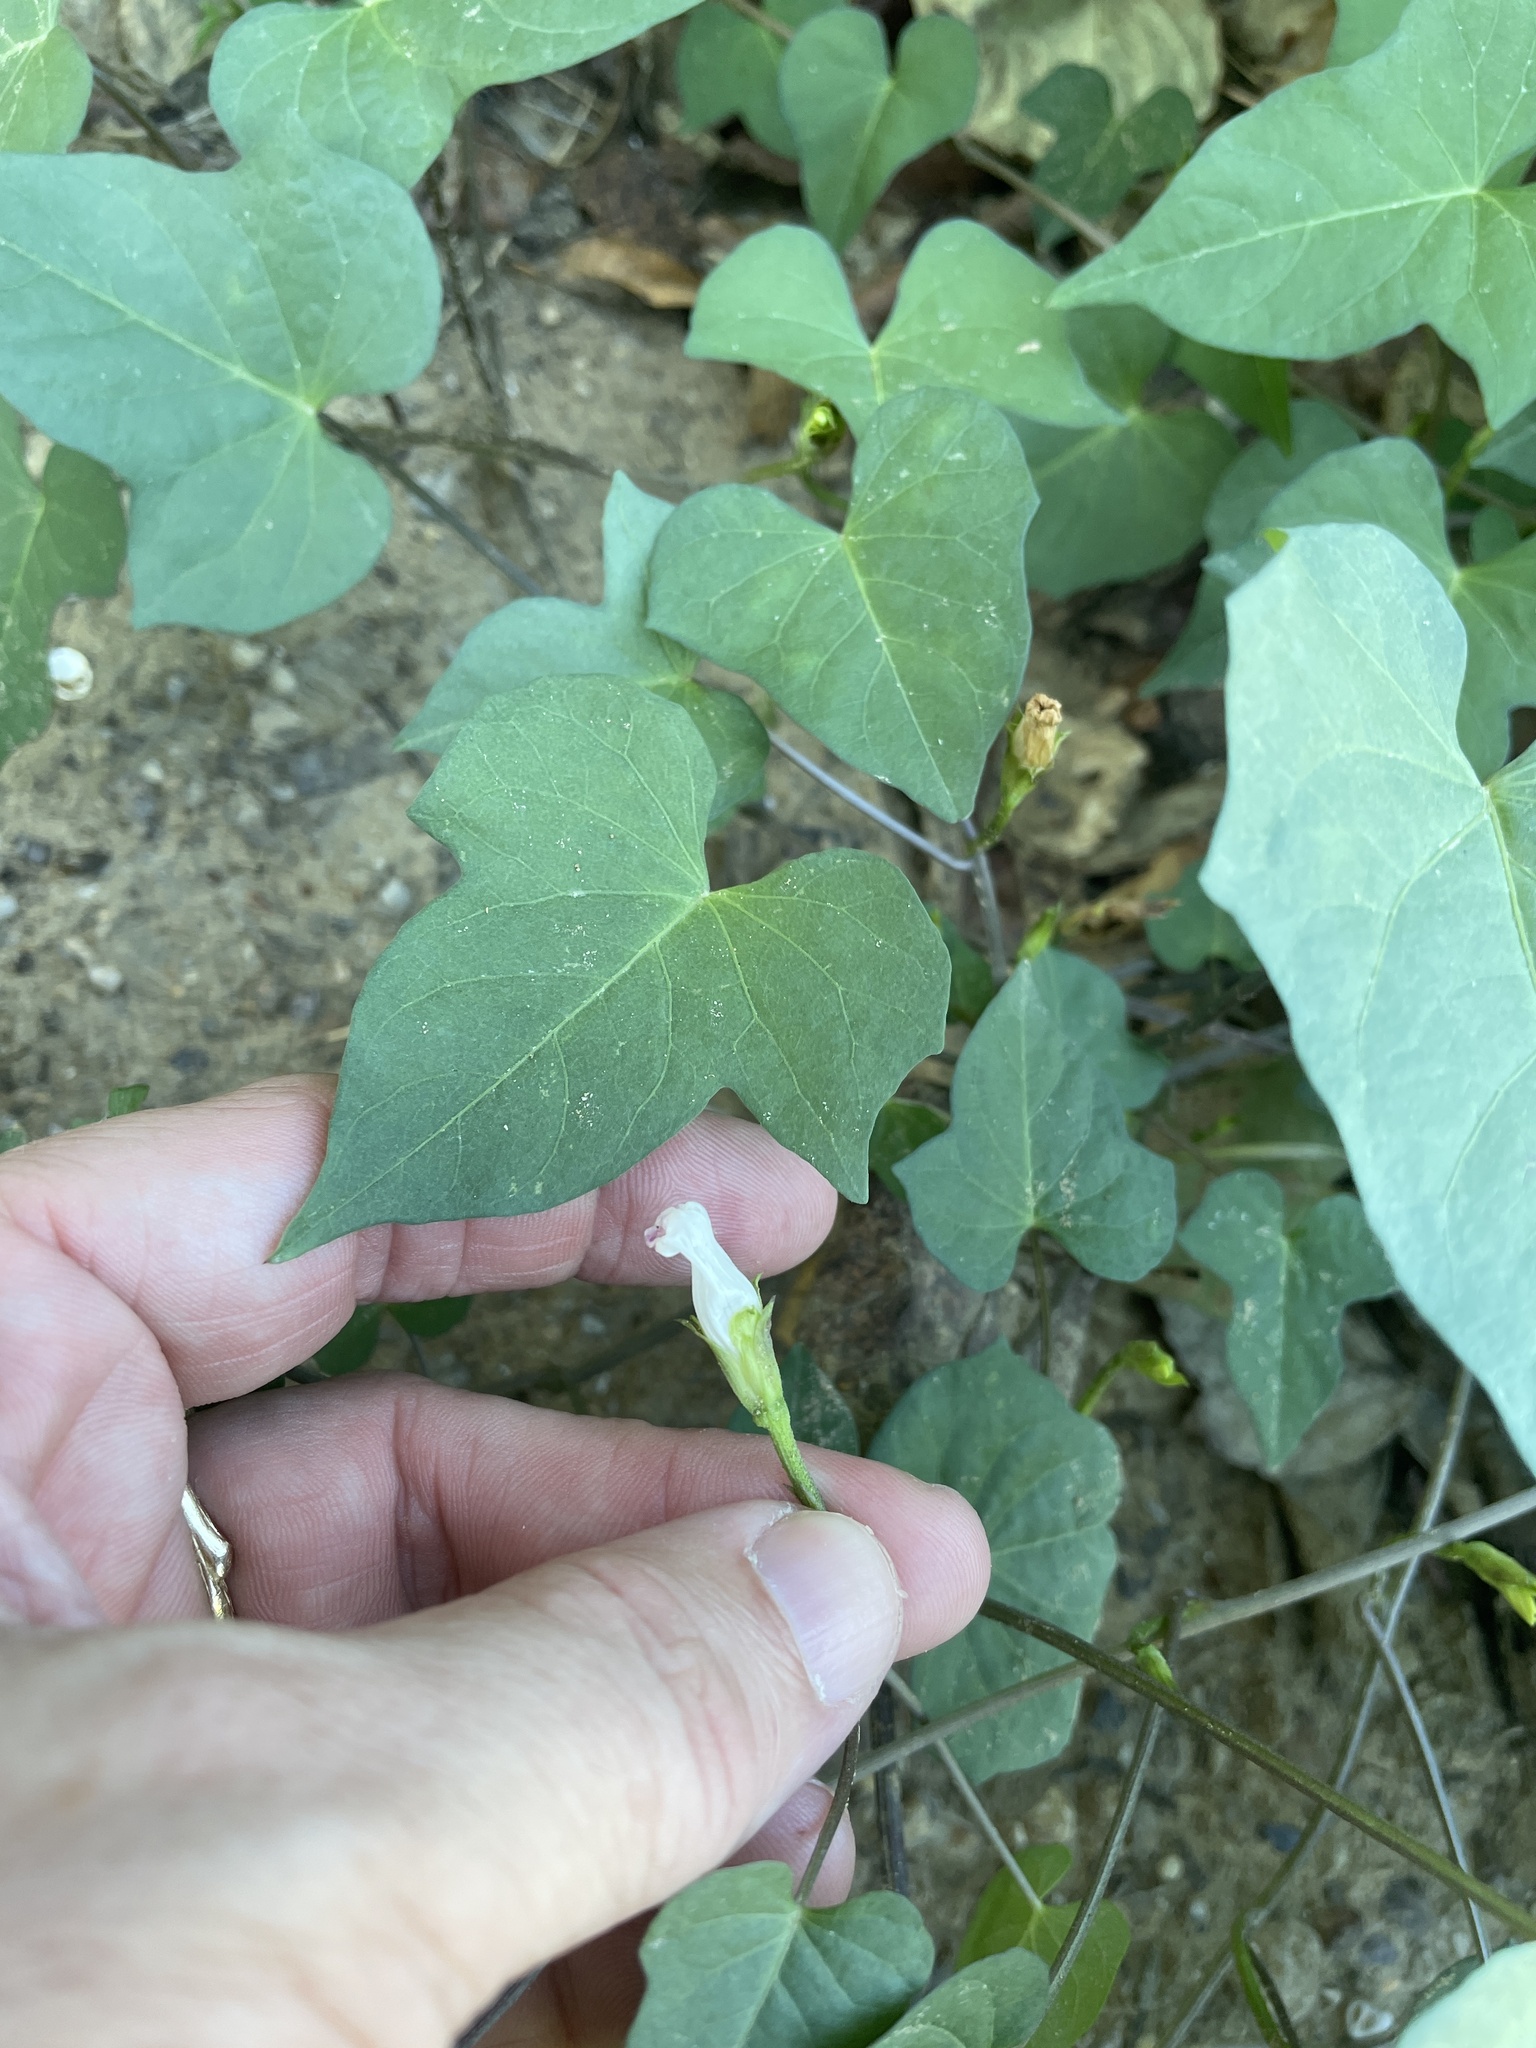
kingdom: Plantae
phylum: Tracheophyta
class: Magnoliopsida
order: Solanales
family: Convolvulaceae
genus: Ipomoea
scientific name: Ipomoea lacunosa
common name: White morning-glory
